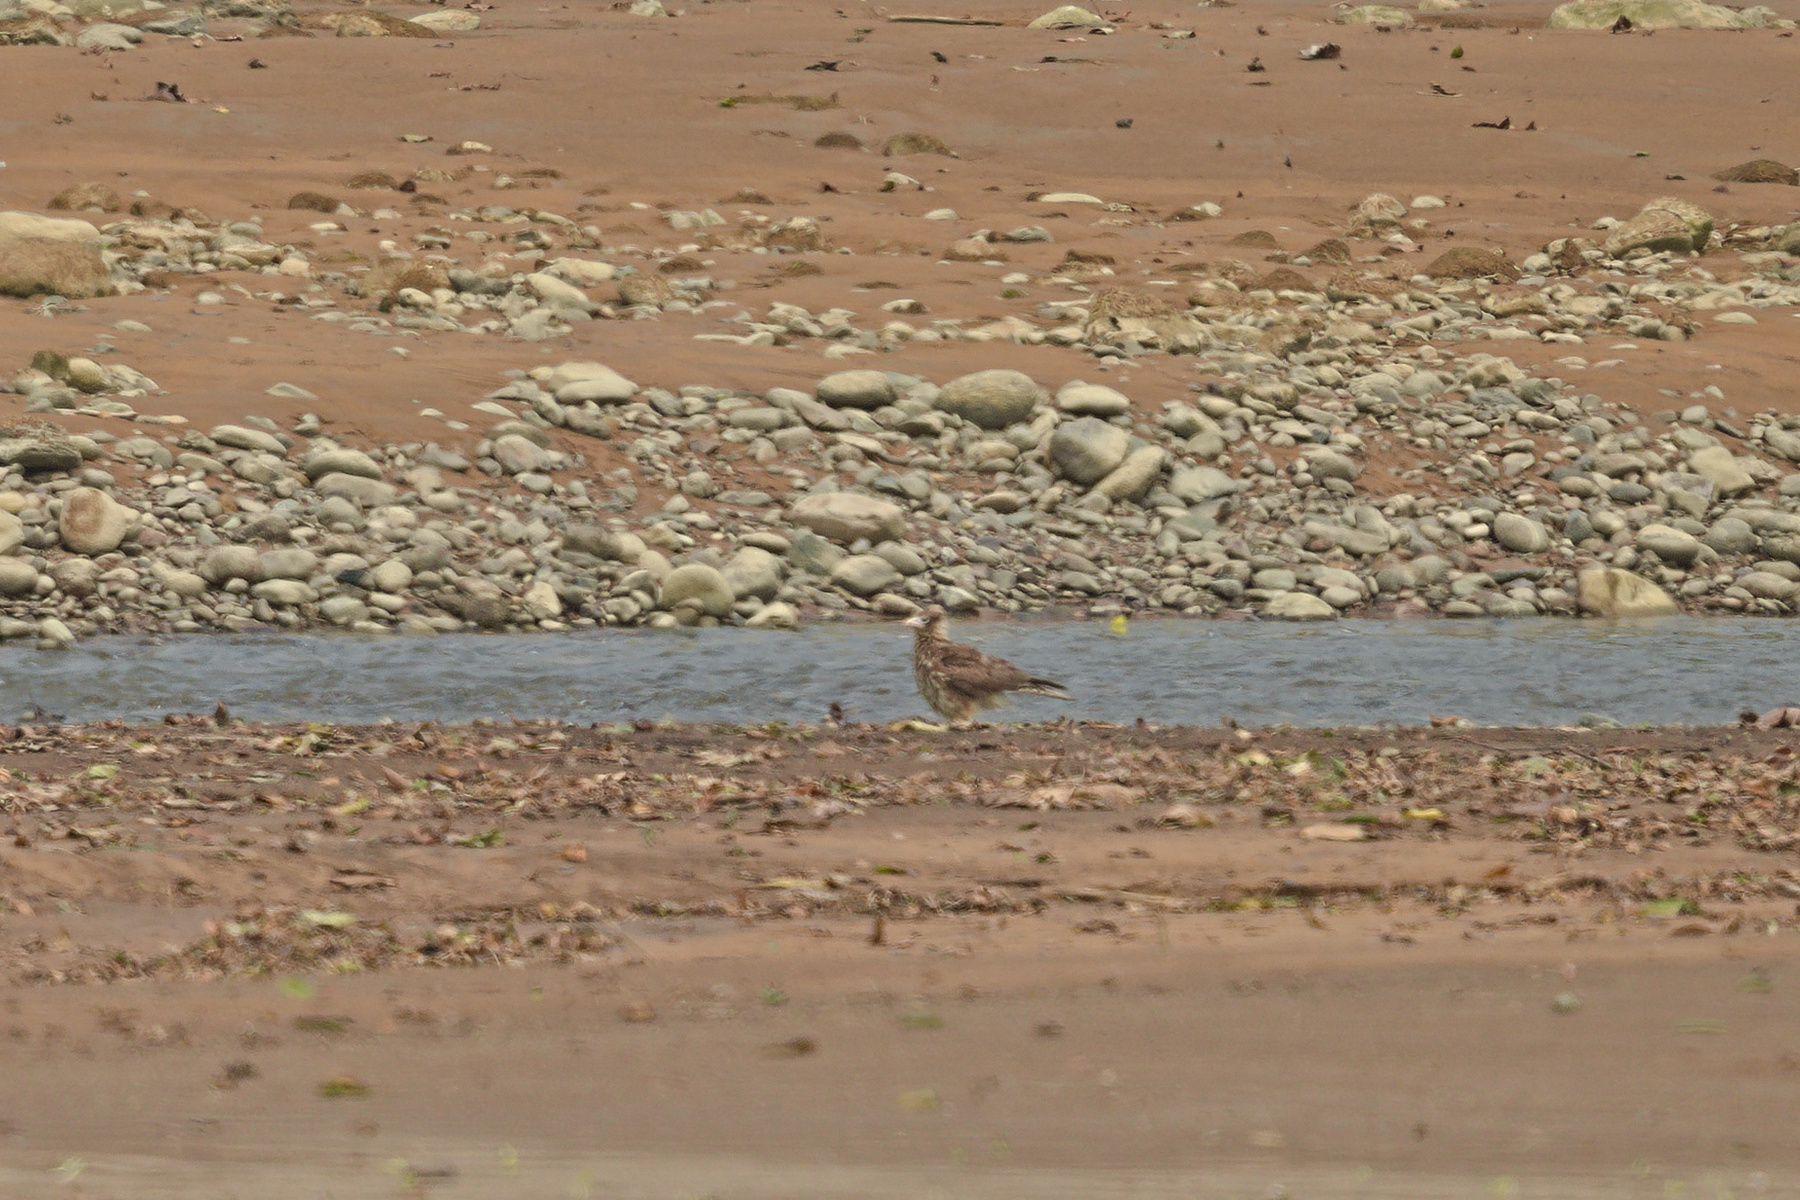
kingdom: Animalia
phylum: Chordata
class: Aves
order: Falconiformes
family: Falconidae
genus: Daptrius
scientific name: Daptrius
